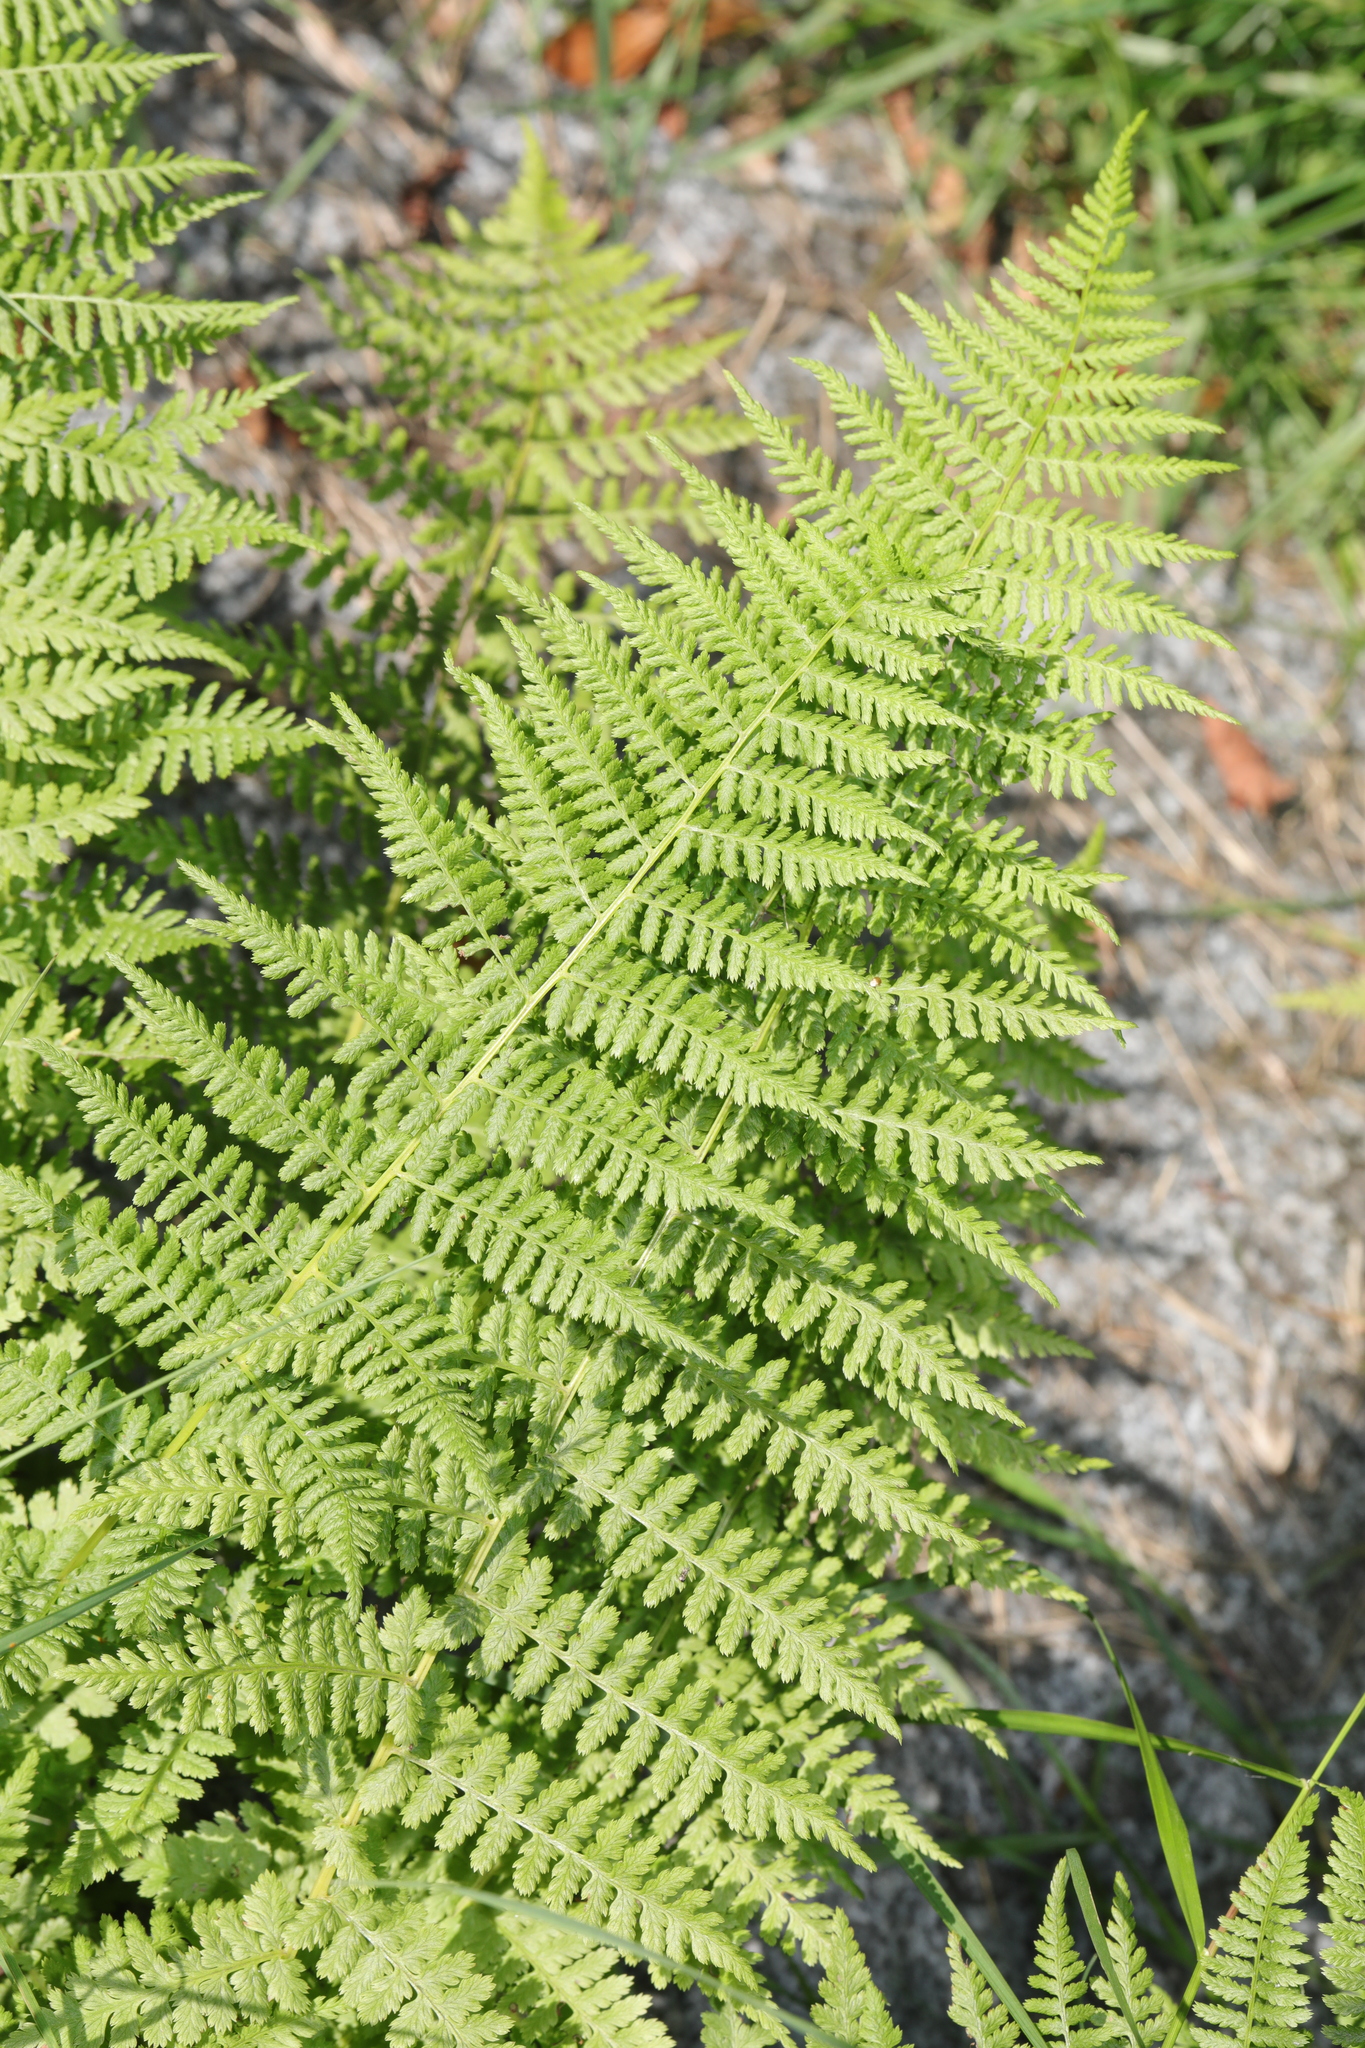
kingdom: Plantae
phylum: Tracheophyta
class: Polypodiopsida
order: Polypodiales
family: Athyriaceae
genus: Athyrium
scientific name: Athyrium filix-femina
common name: Lady fern
